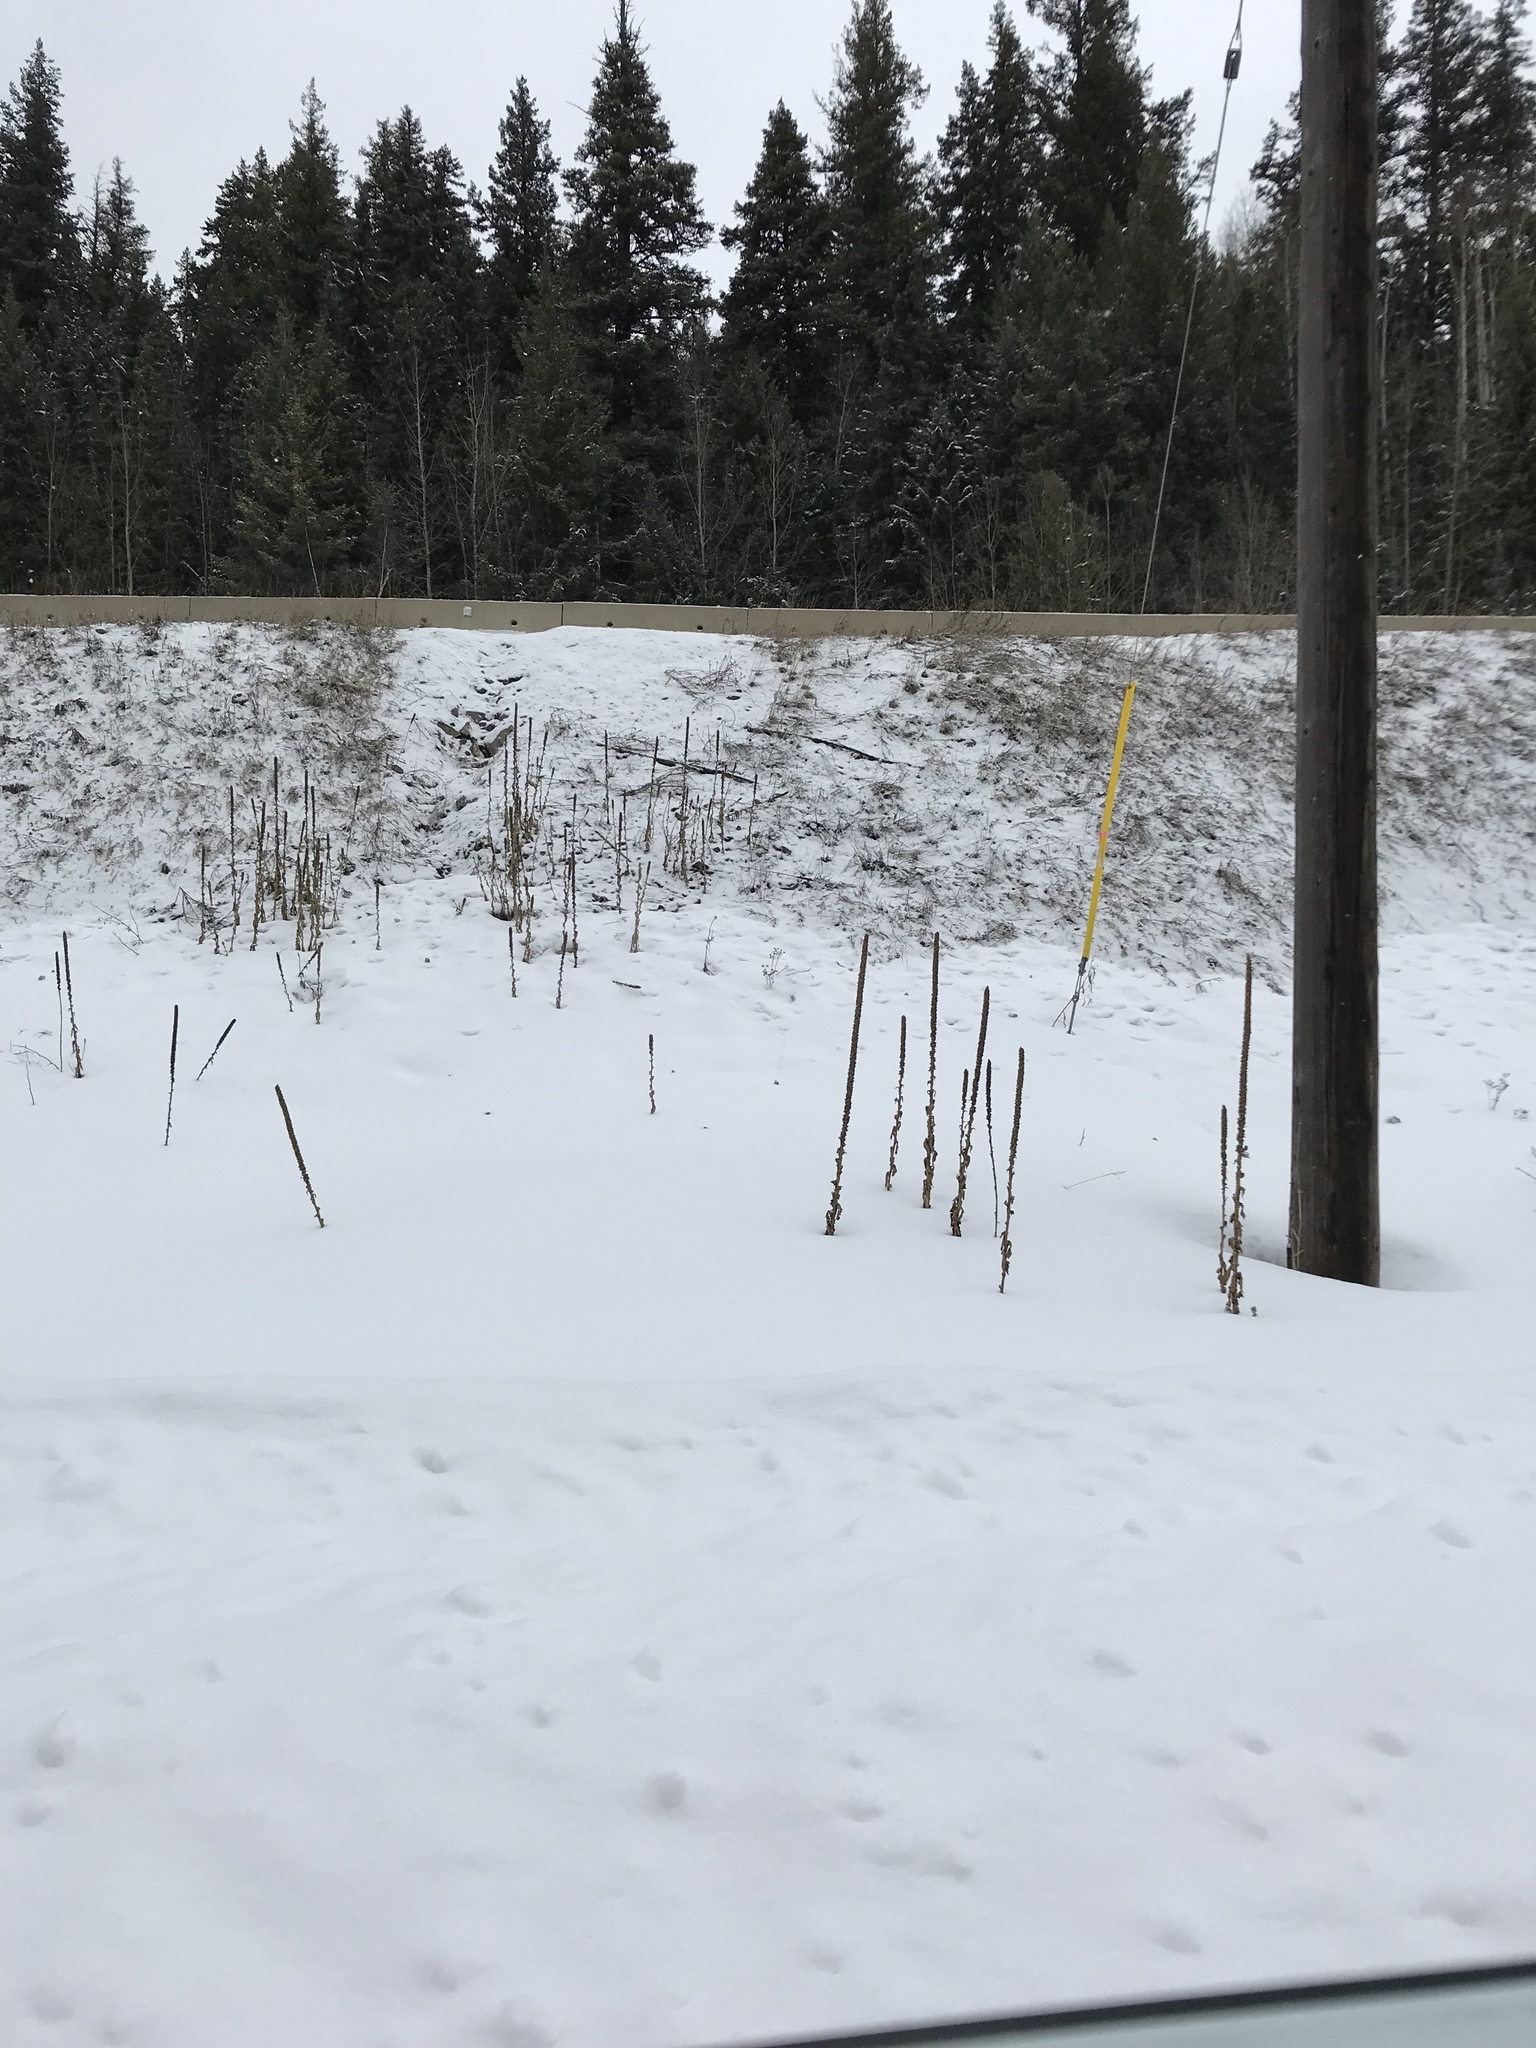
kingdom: Plantae
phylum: Tracheophyta
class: Magnoliopsida
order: Lamiales
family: Scrophulariaceae
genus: Verbascum
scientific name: Verbascum thapsus
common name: Common mullein
